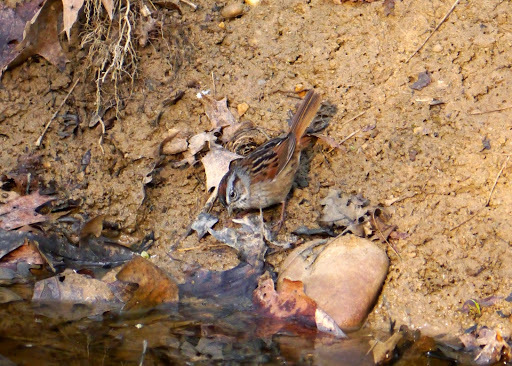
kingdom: Animalia
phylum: Chordata
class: Aves
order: Passeriformes
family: Passerellidae
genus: Melospiza
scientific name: Melospiza georgiana
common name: Swamp sparrow
